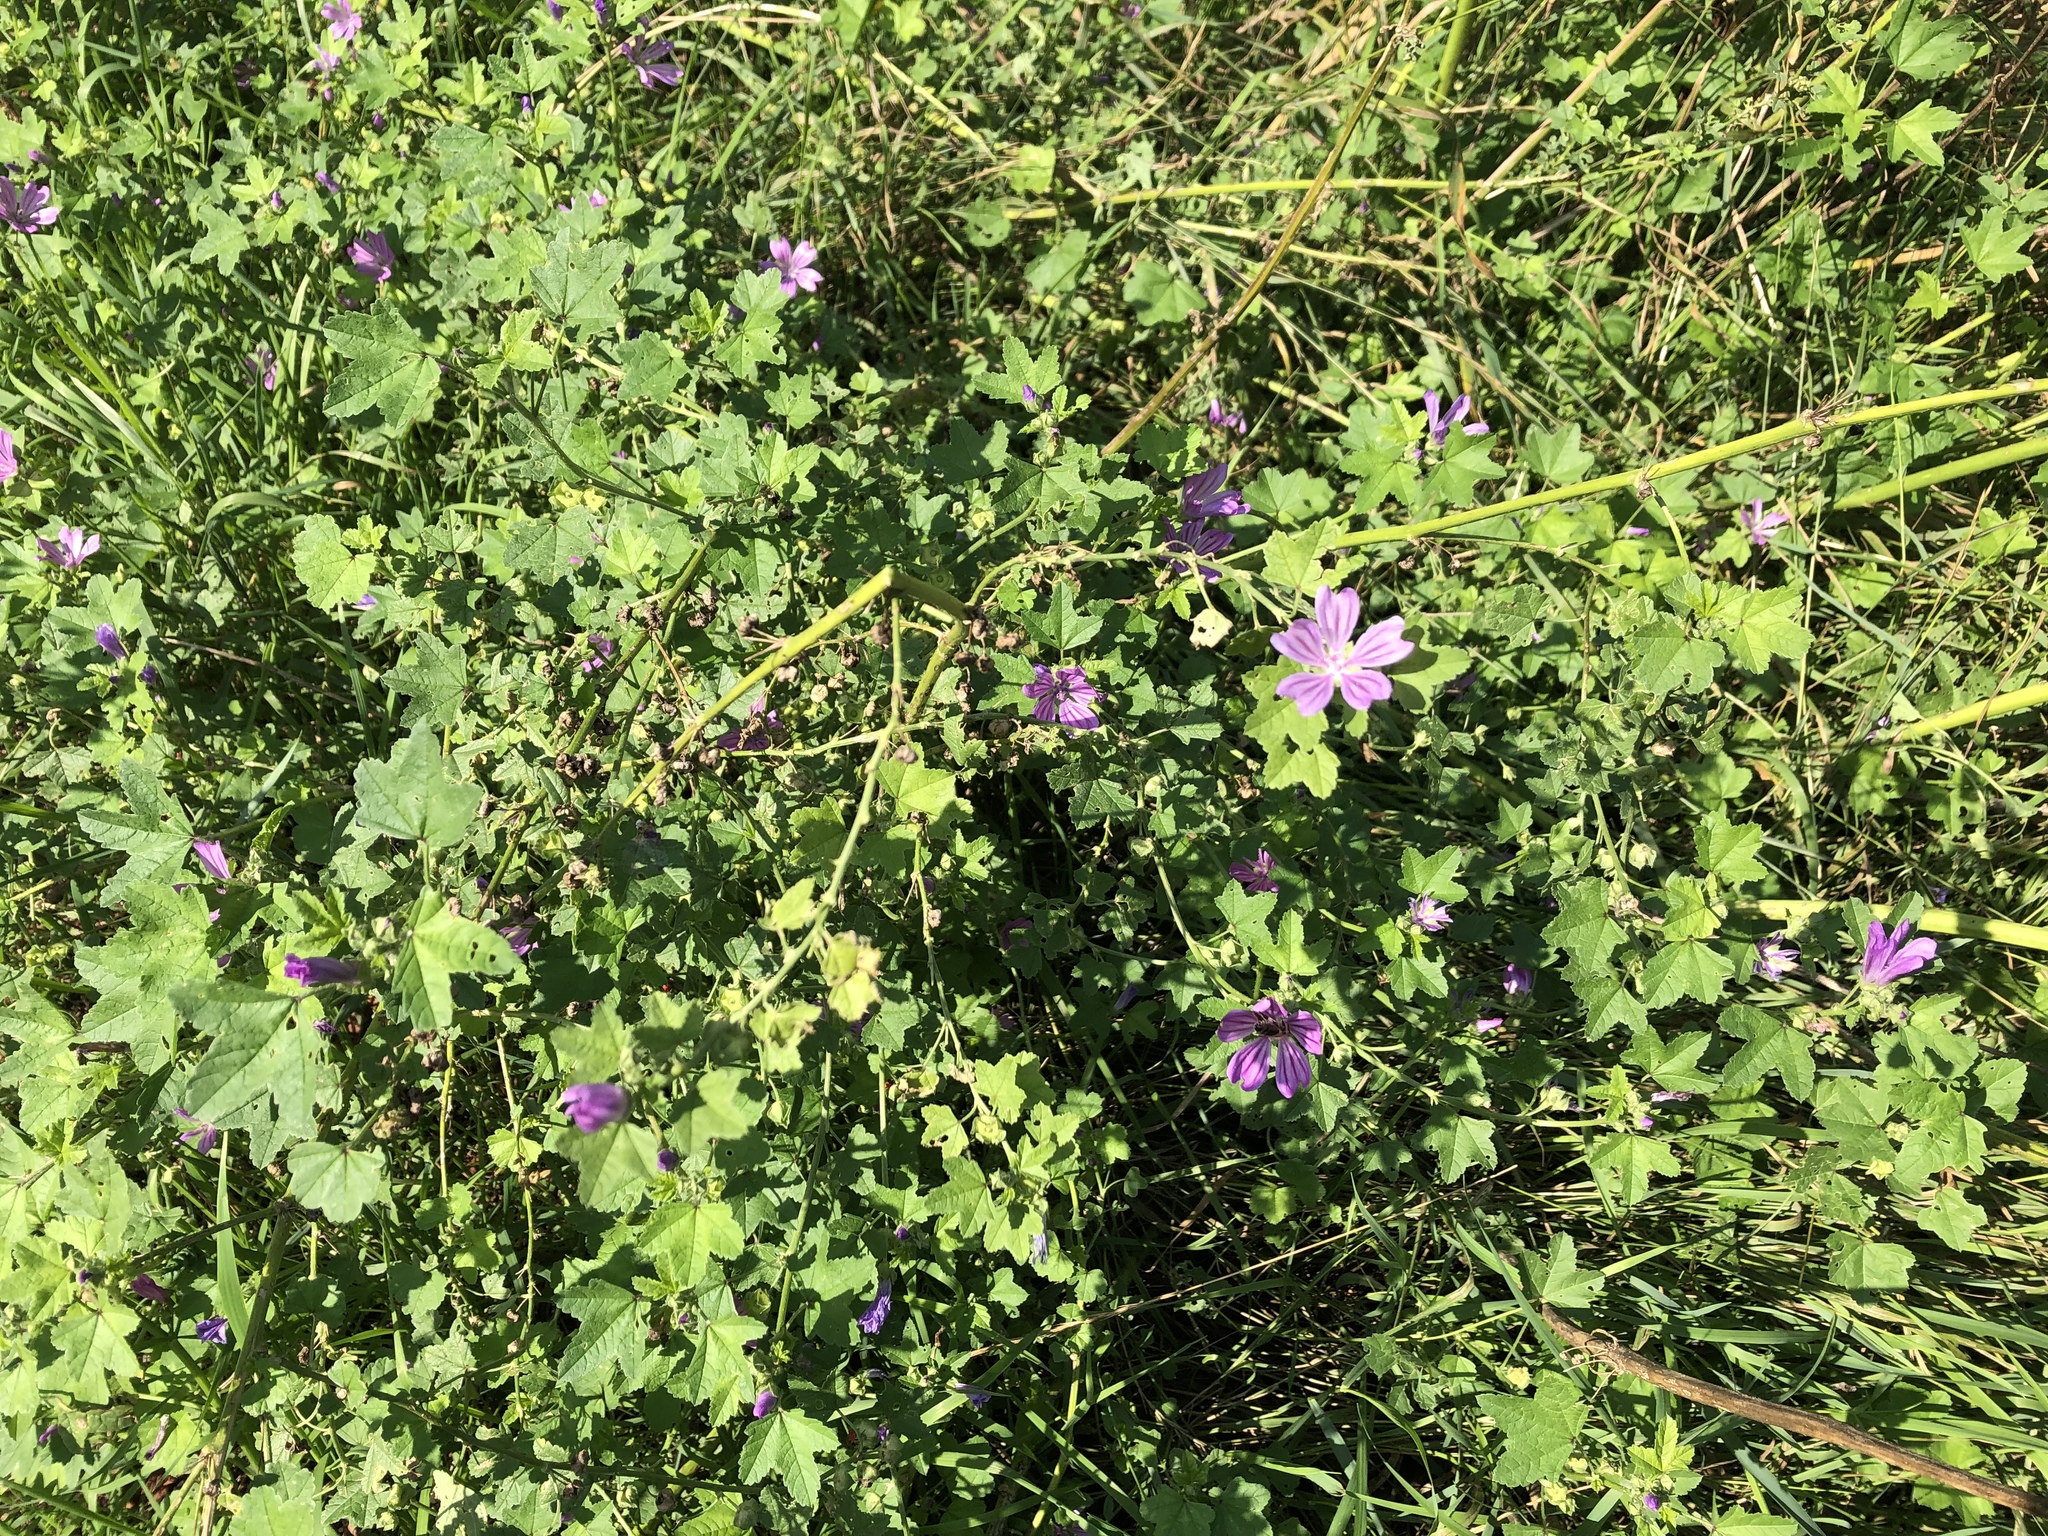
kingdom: Plantae
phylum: Tracheophyta
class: Magnoliopsida
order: Malvales
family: Malvaceae
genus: Malva
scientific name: Malva sylvestris
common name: Common mallow
